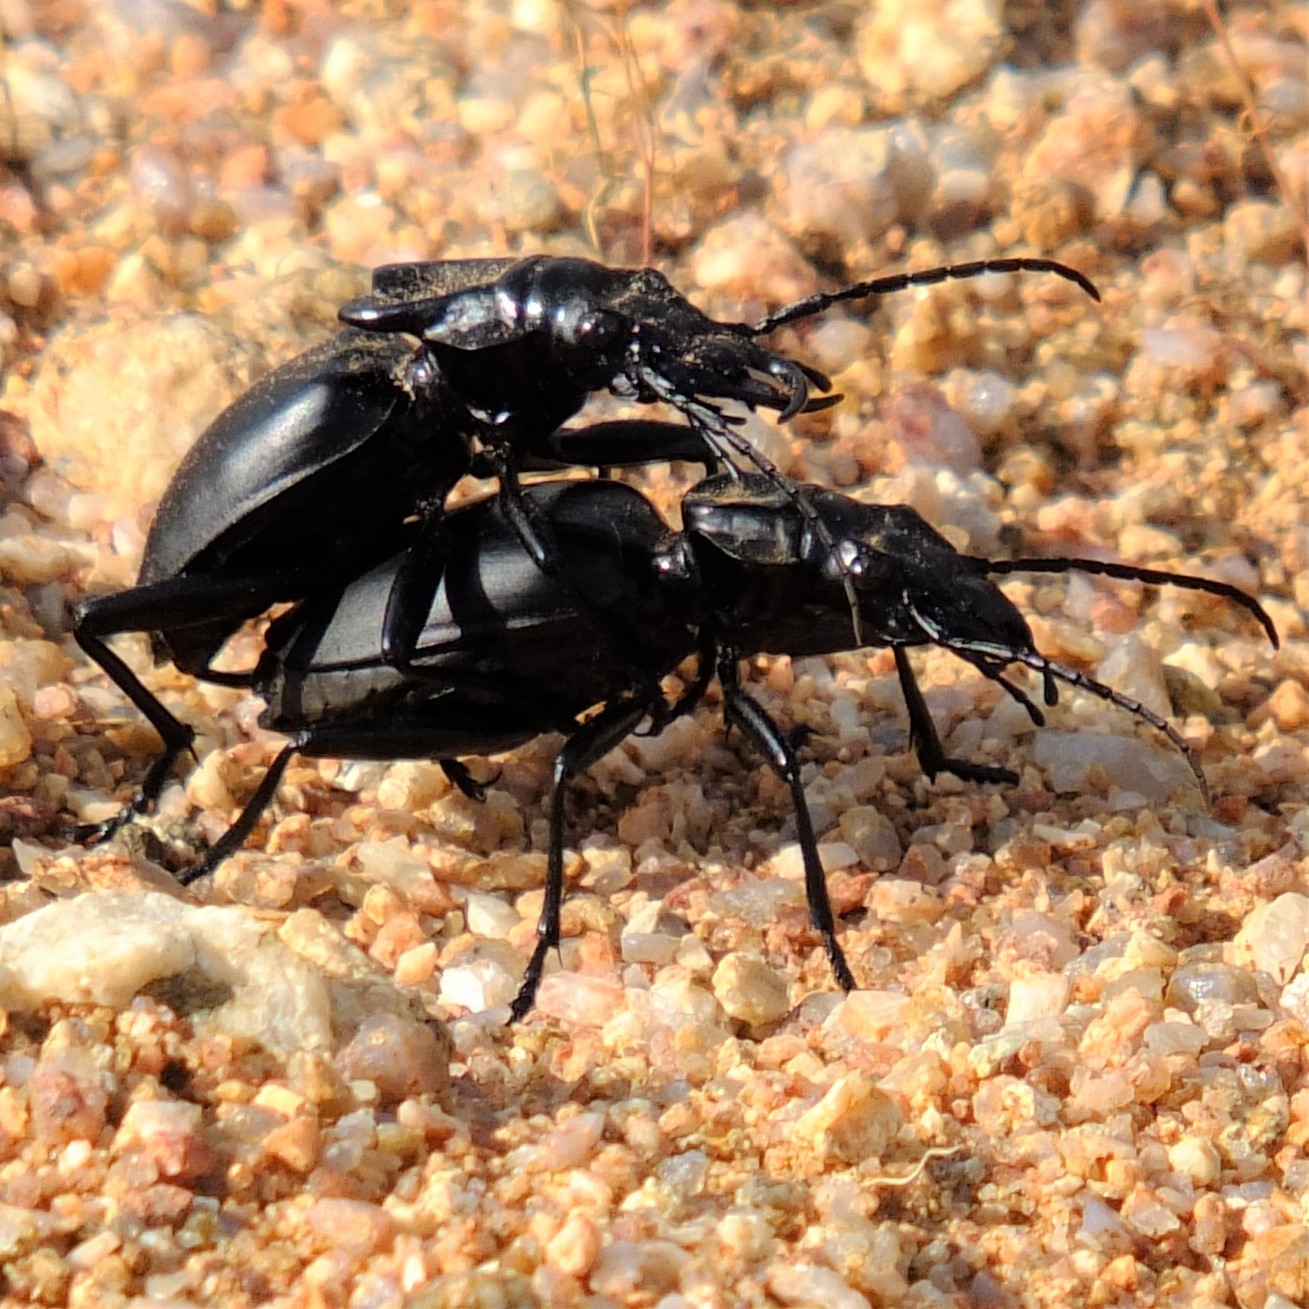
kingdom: Animalia
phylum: Arthropoda
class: Insecta
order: Coleoptera
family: Carabidae
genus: Anthia
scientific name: Anthia maxillosa
